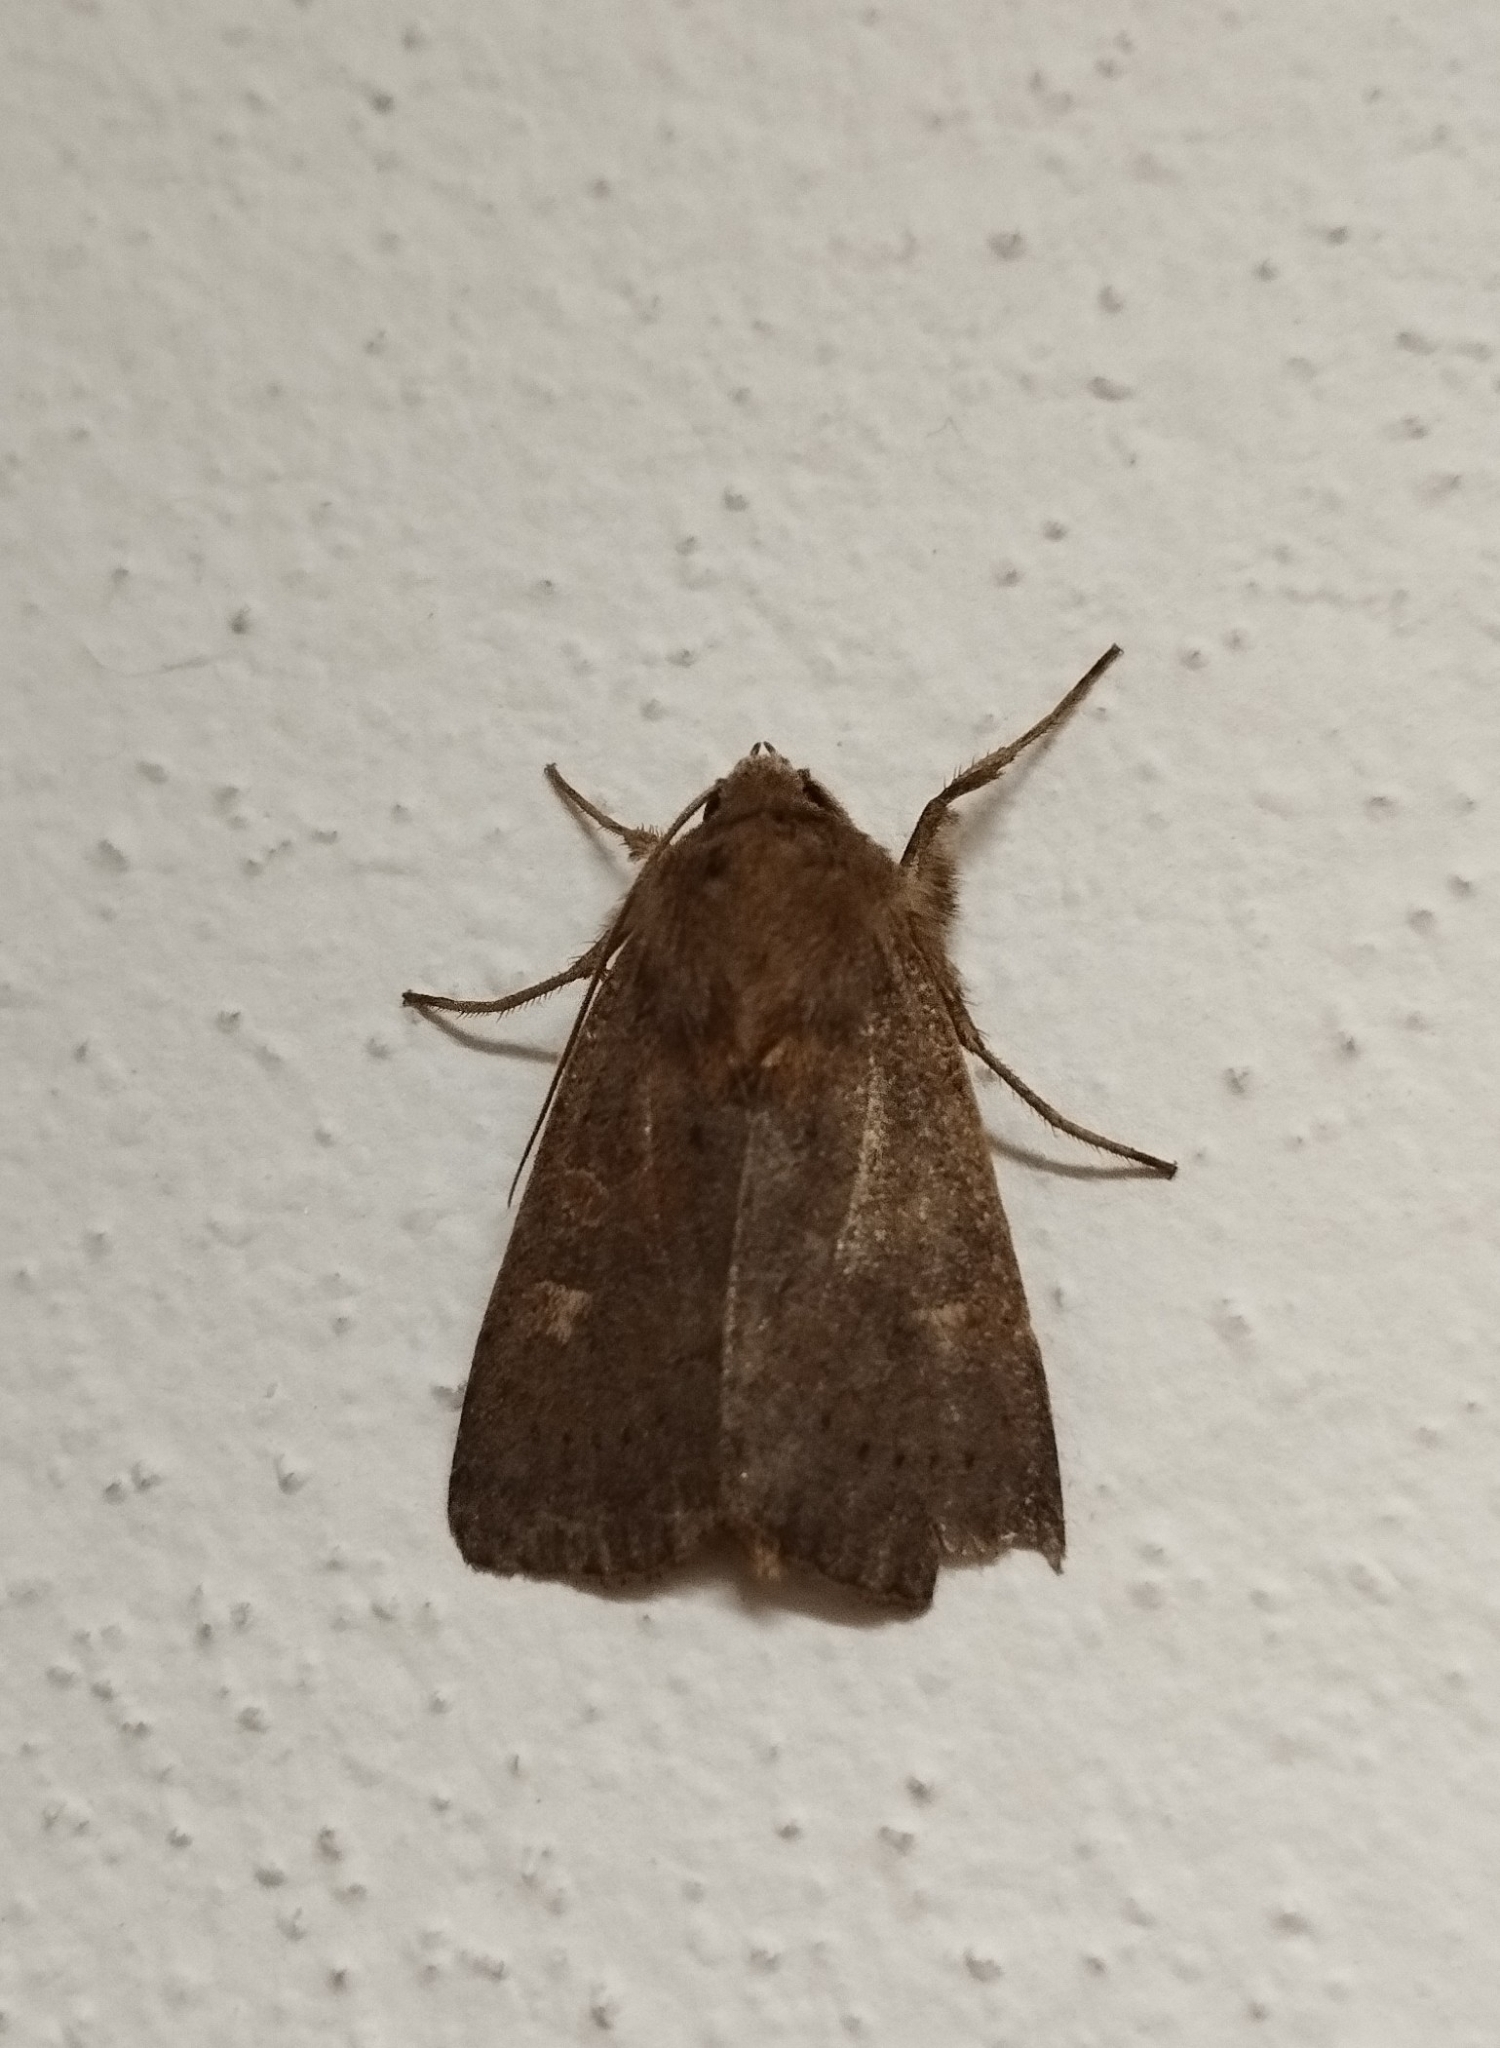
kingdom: Animalia
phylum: Arthropoda
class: Insecta
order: Lepidoptera
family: Noctuidae
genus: Xestia
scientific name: Xestia xanthographa
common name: Square-spot rustic
